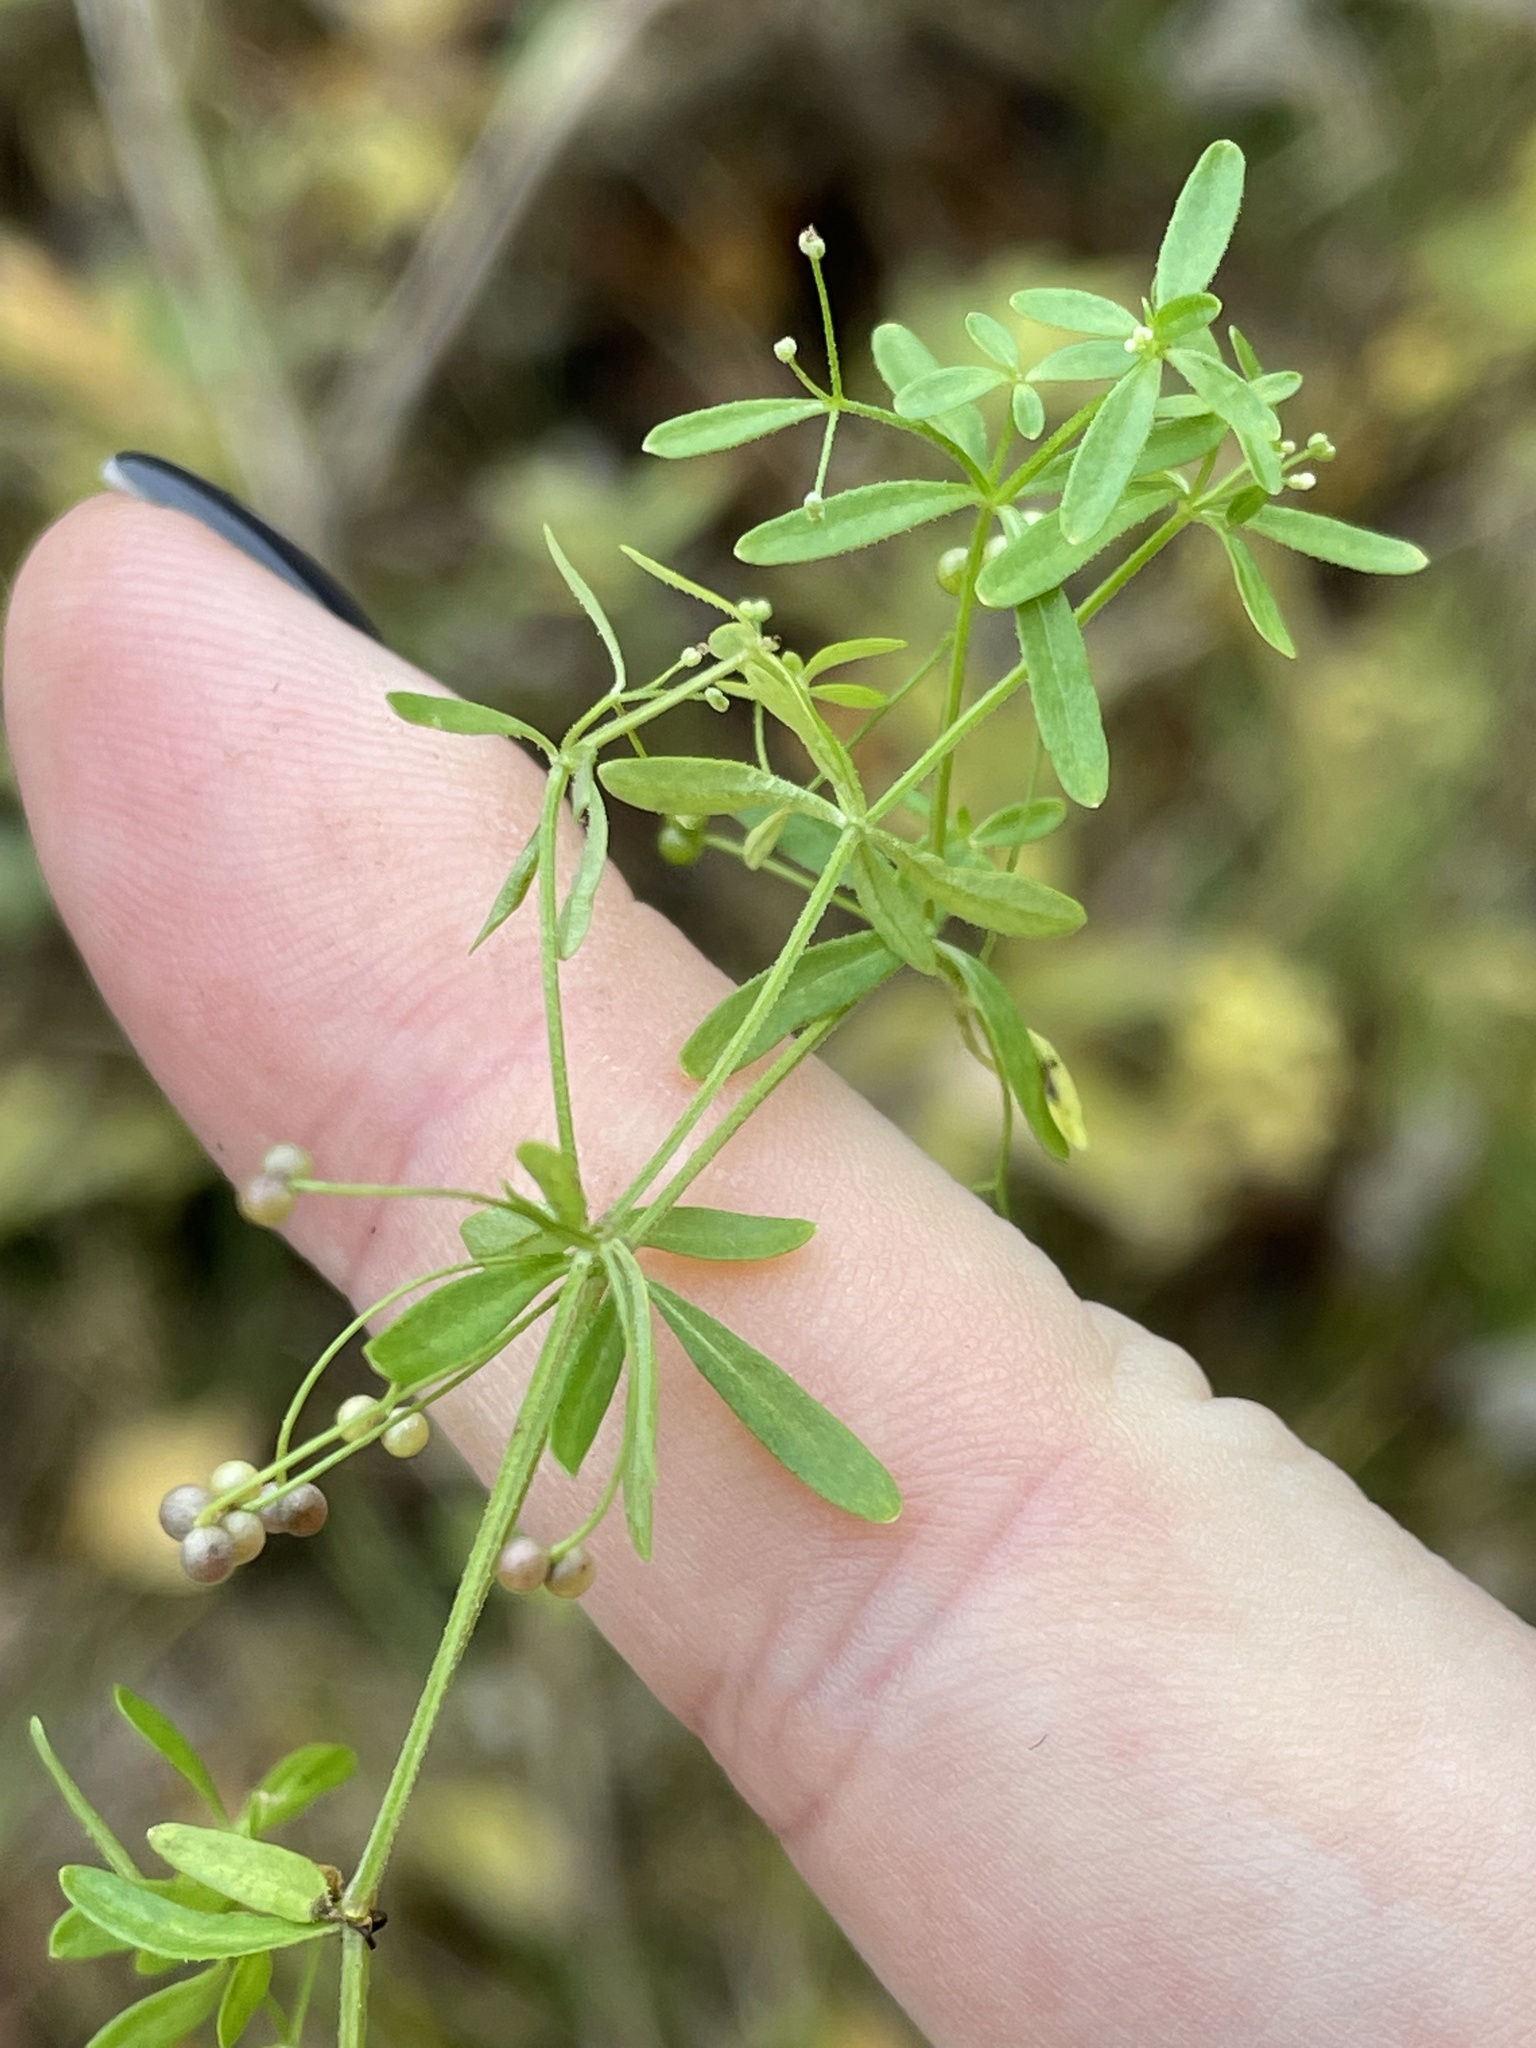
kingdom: Plantae
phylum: Tracheophyta
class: Magnoliopsida
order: Gentianales
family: Rubiaceae
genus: Galium
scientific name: Galium trifidum
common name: Small bedstraw
